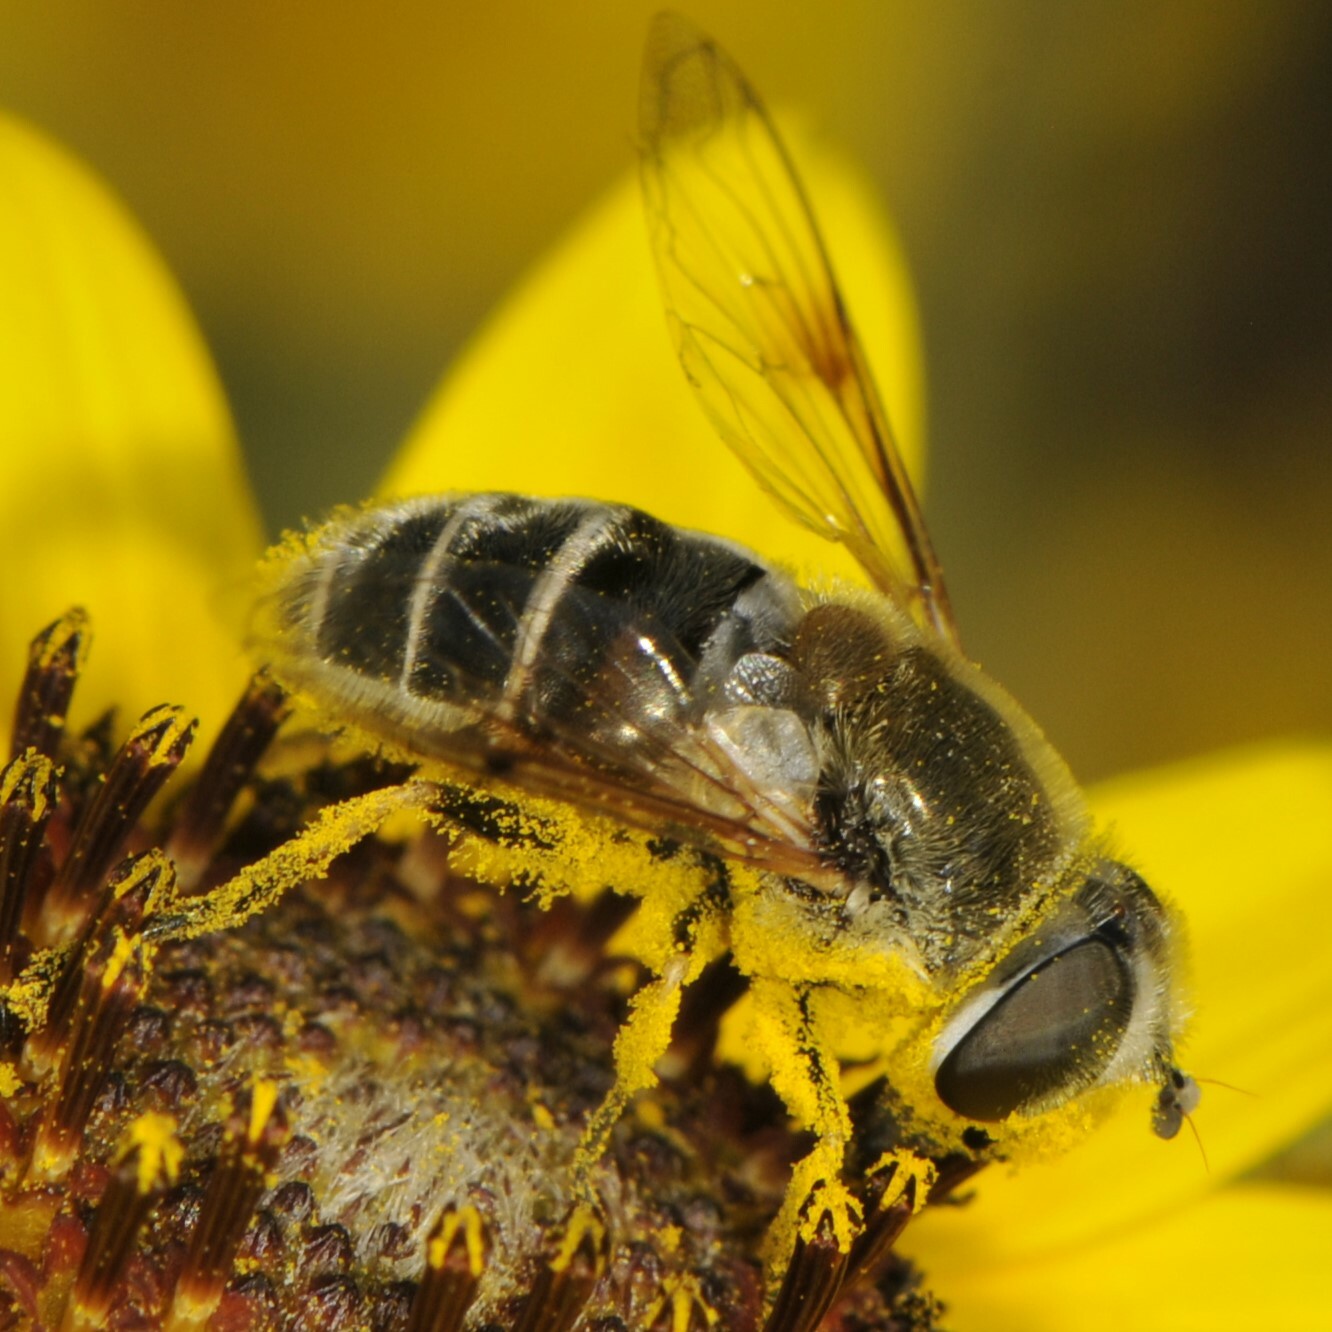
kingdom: Animalia
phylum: Arthropoda
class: Insecta
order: Diptera
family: Syrphidae
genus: Eristalis
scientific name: Eristalis stipator
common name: Yellow-shouldered drone fly
